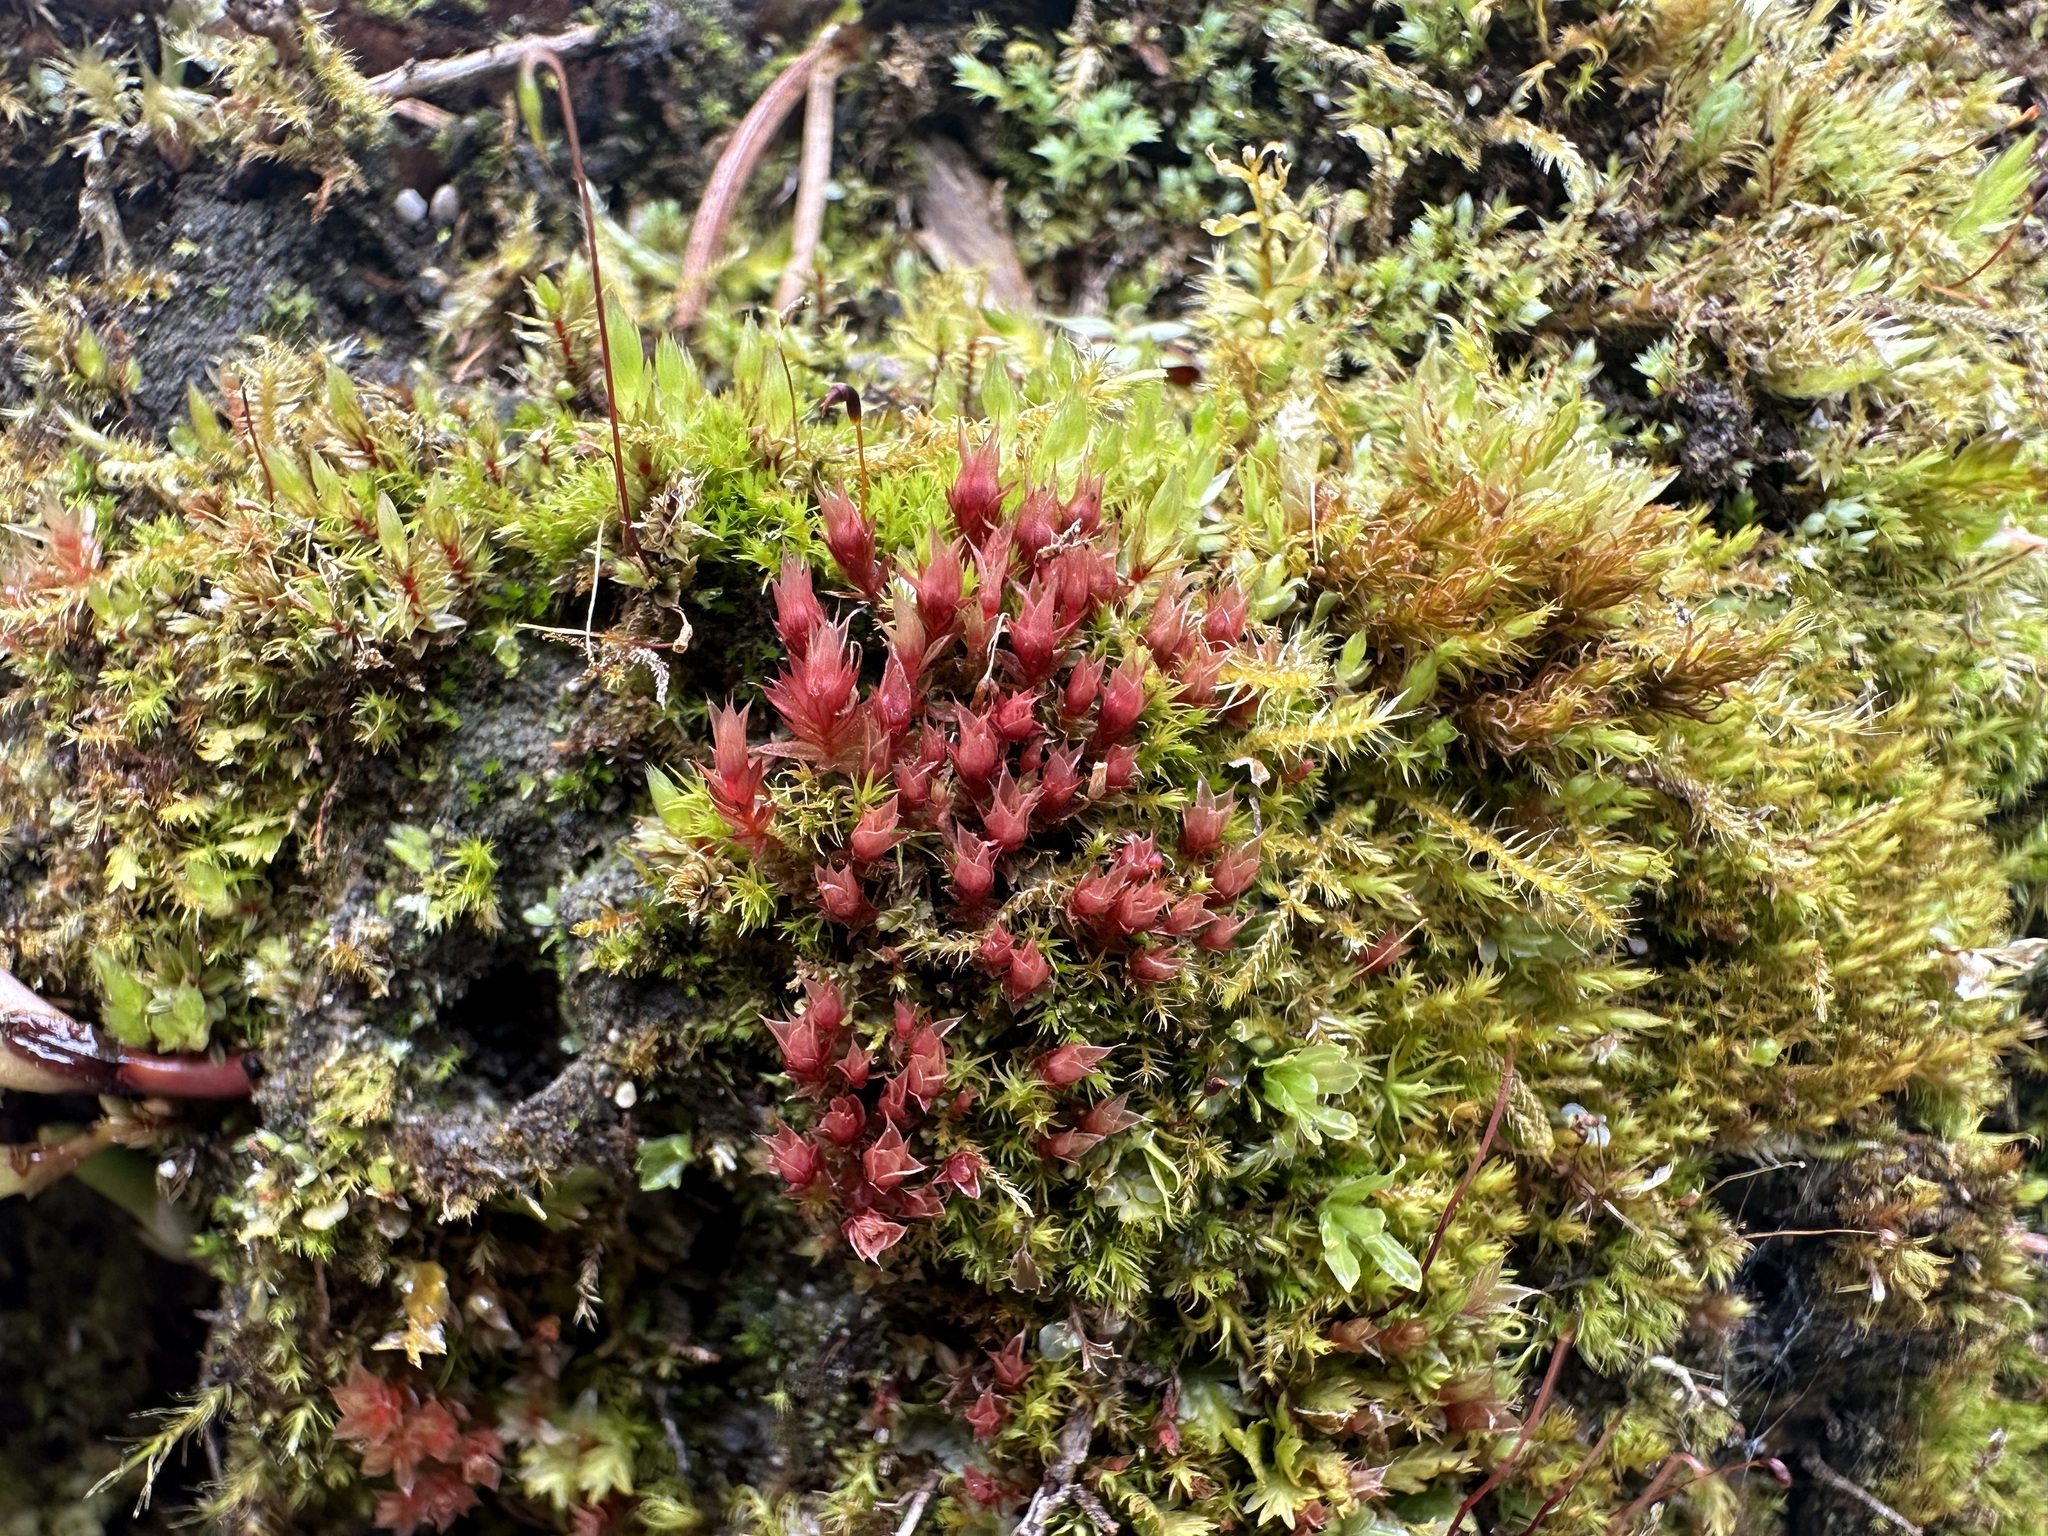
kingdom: Plantae
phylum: Bryophyta
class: Bryopsida
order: Bryales
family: Bryaceae
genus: Ptychostomum
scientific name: Ptychostomum pallens
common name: Pale thread-moss
